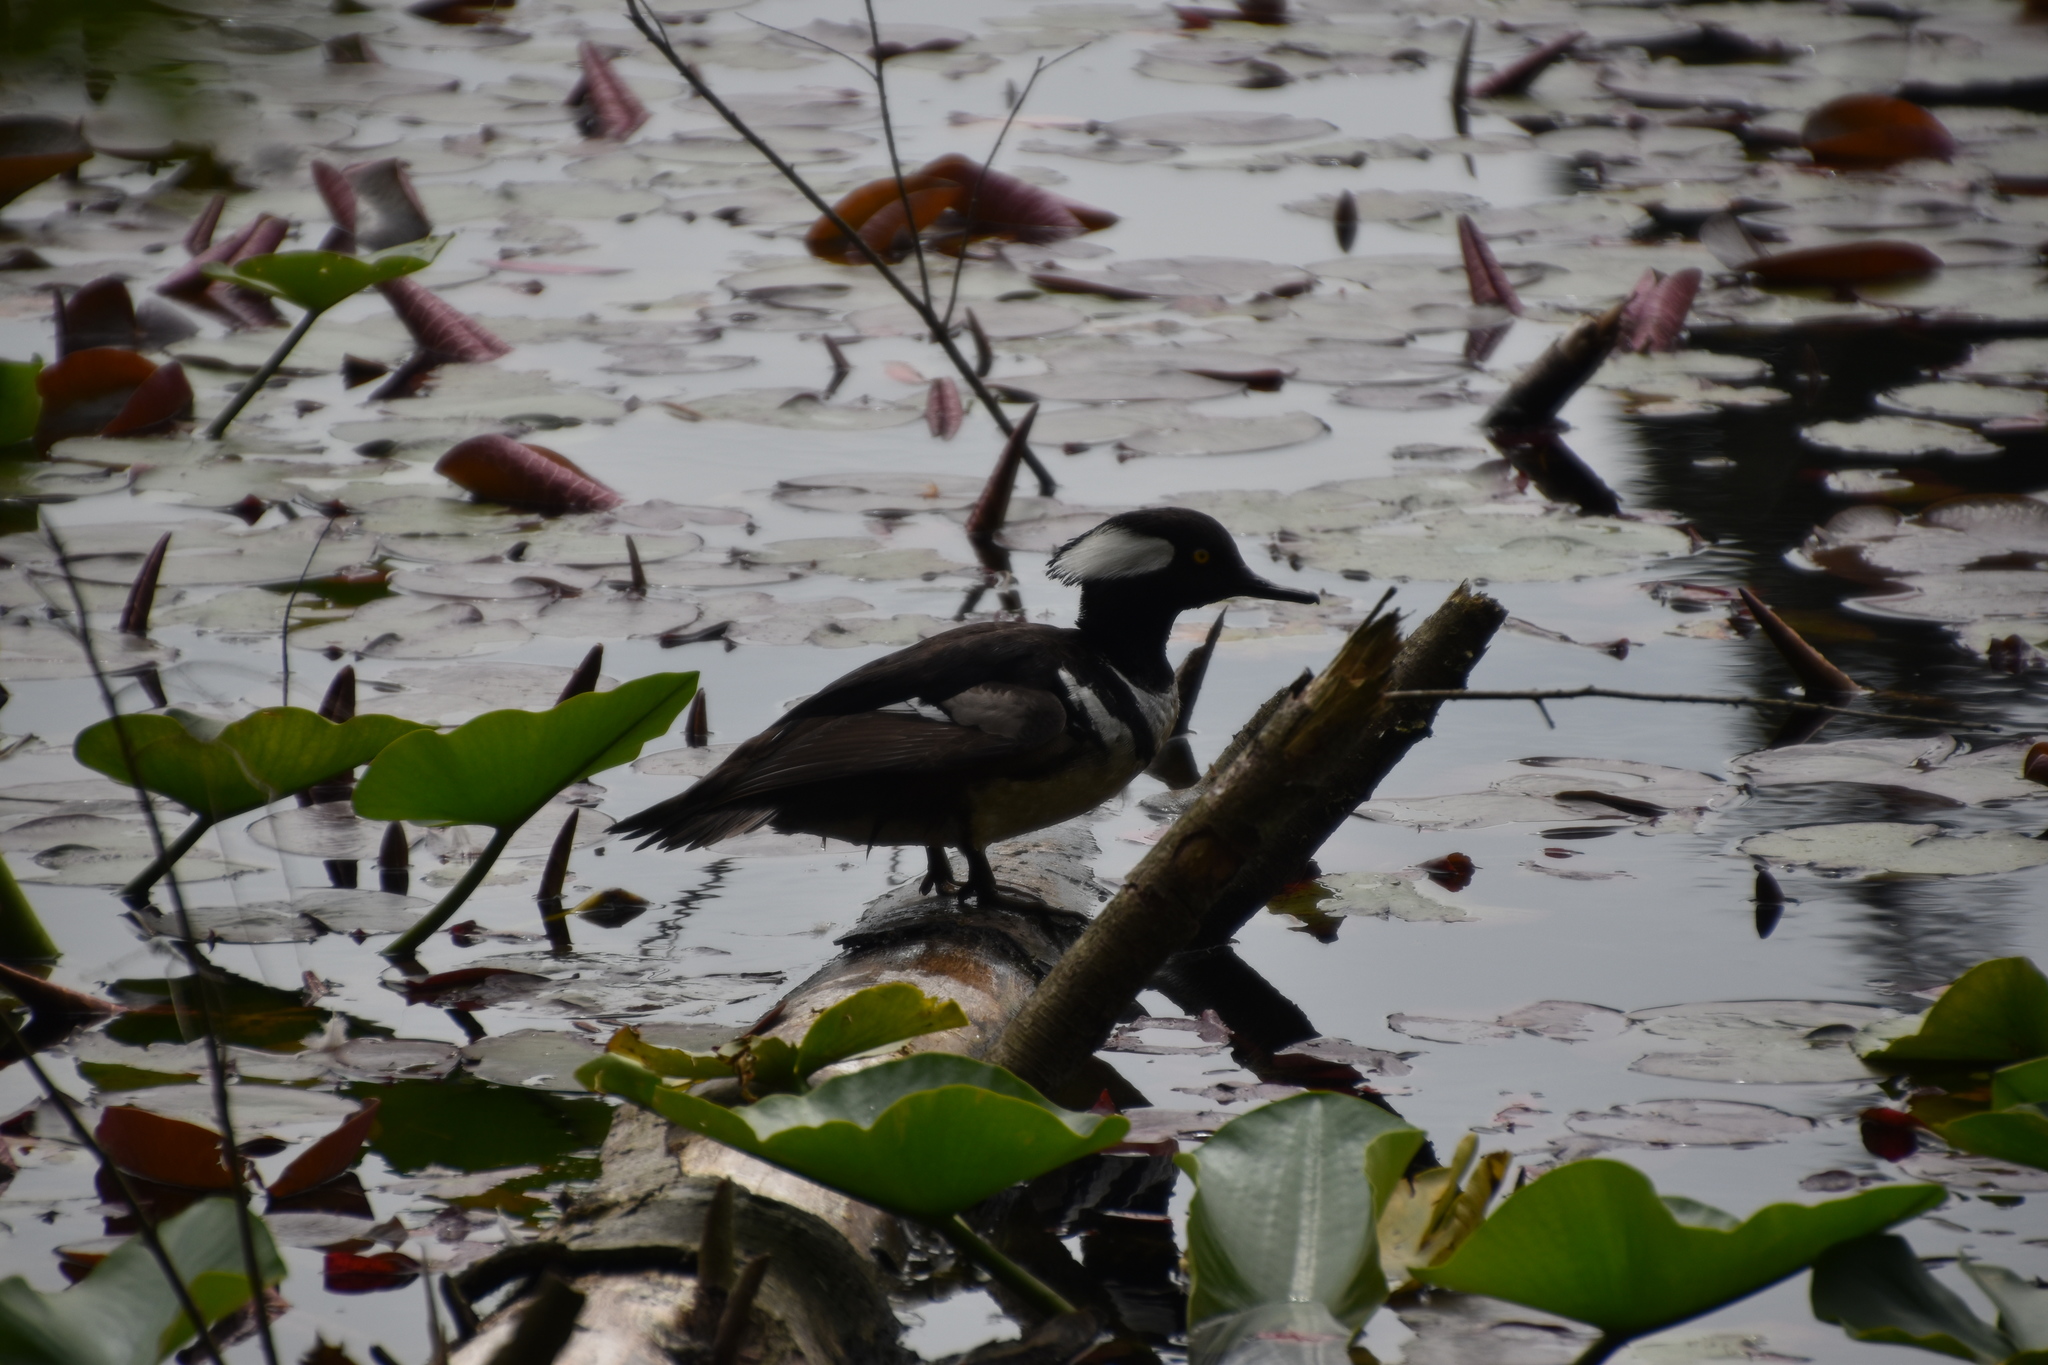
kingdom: Animalia
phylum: Chordata
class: Aves
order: Anseriformes
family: Anatidae
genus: Lophodytes
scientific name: Lophodytes cucullatus
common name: Hooded merganser
